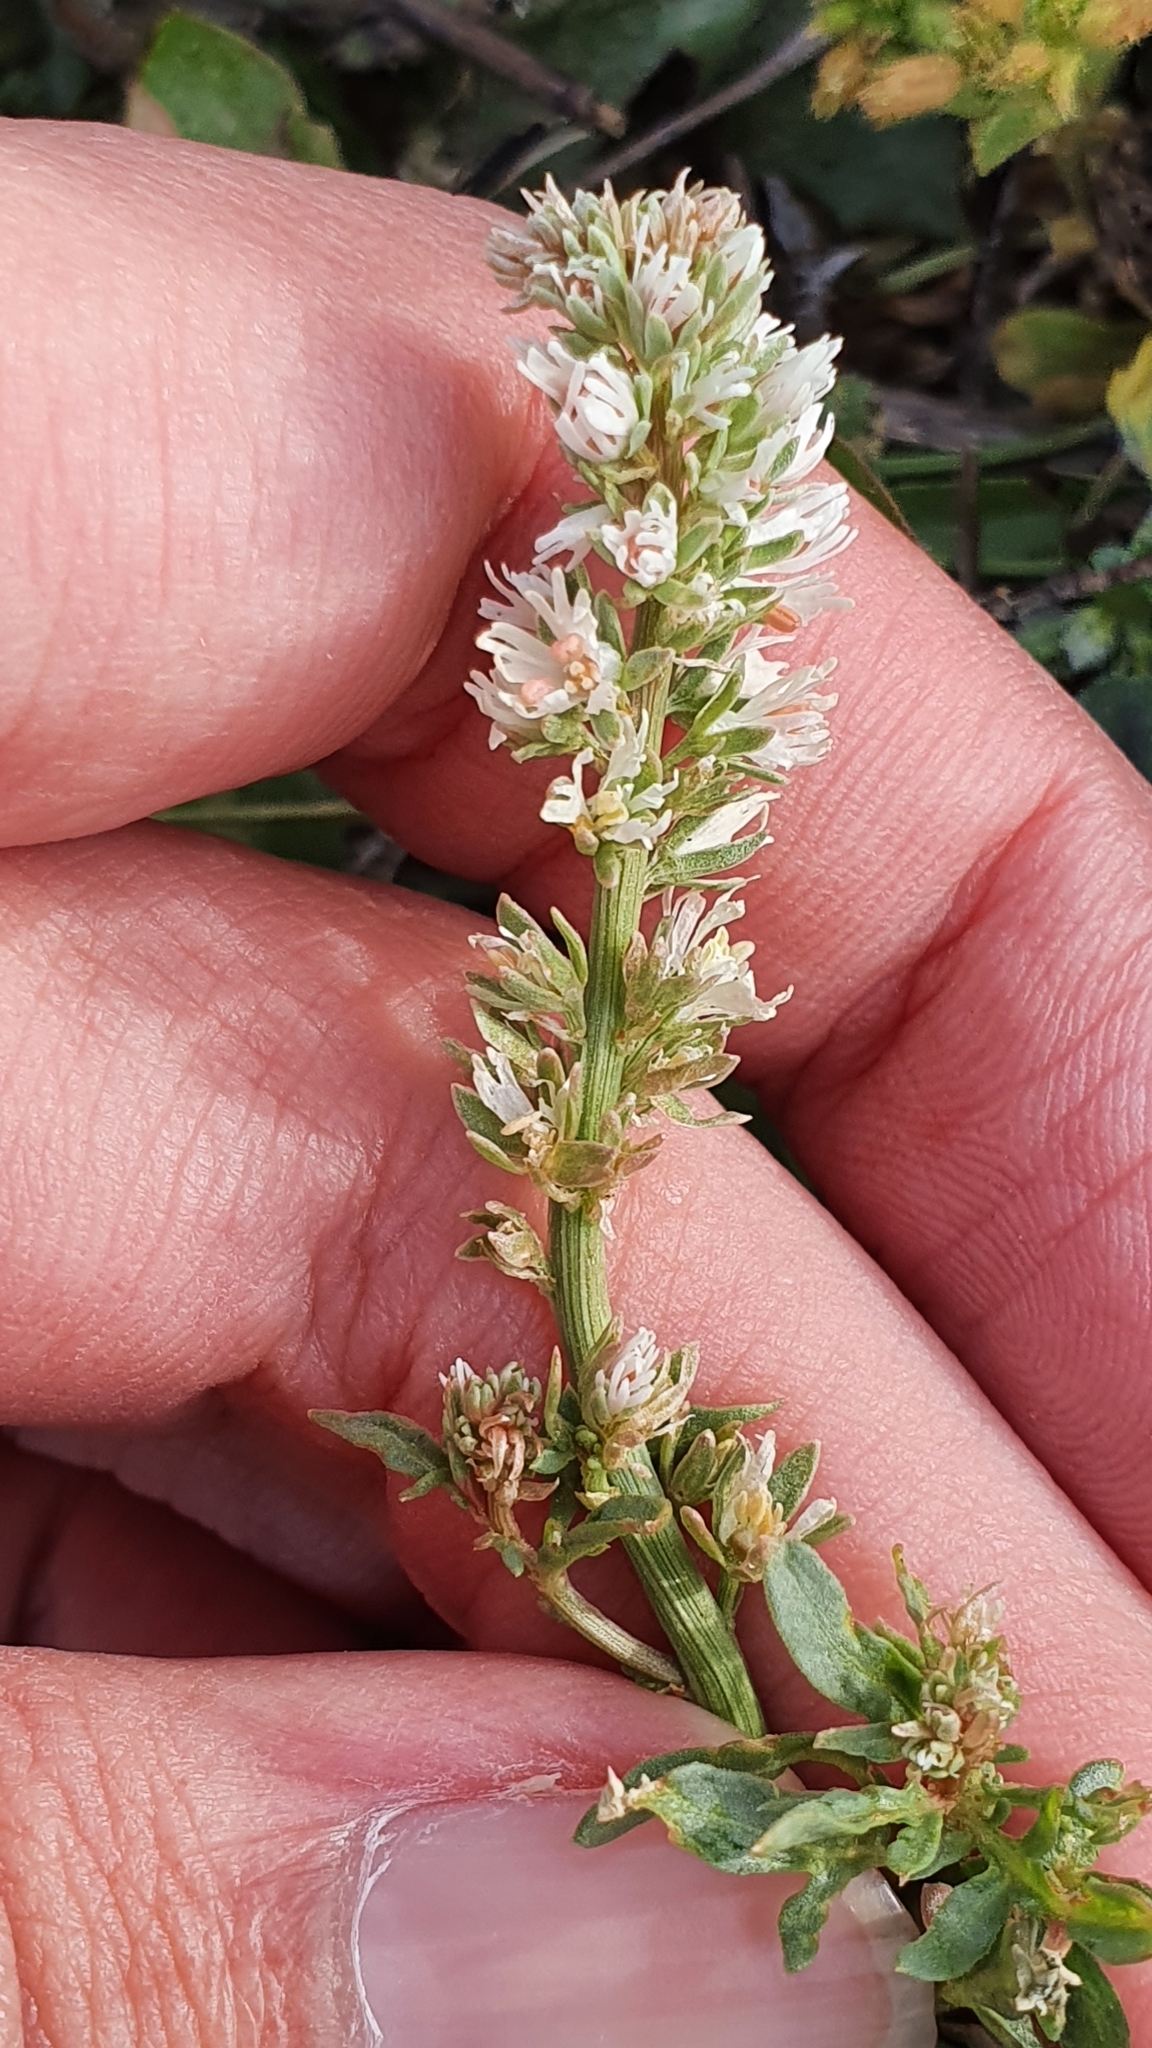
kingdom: Plantae
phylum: Tracheophyta
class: Magnoliopsida
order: Brassicales
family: Resedaceae
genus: Reseda
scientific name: Reseda duriaeana
